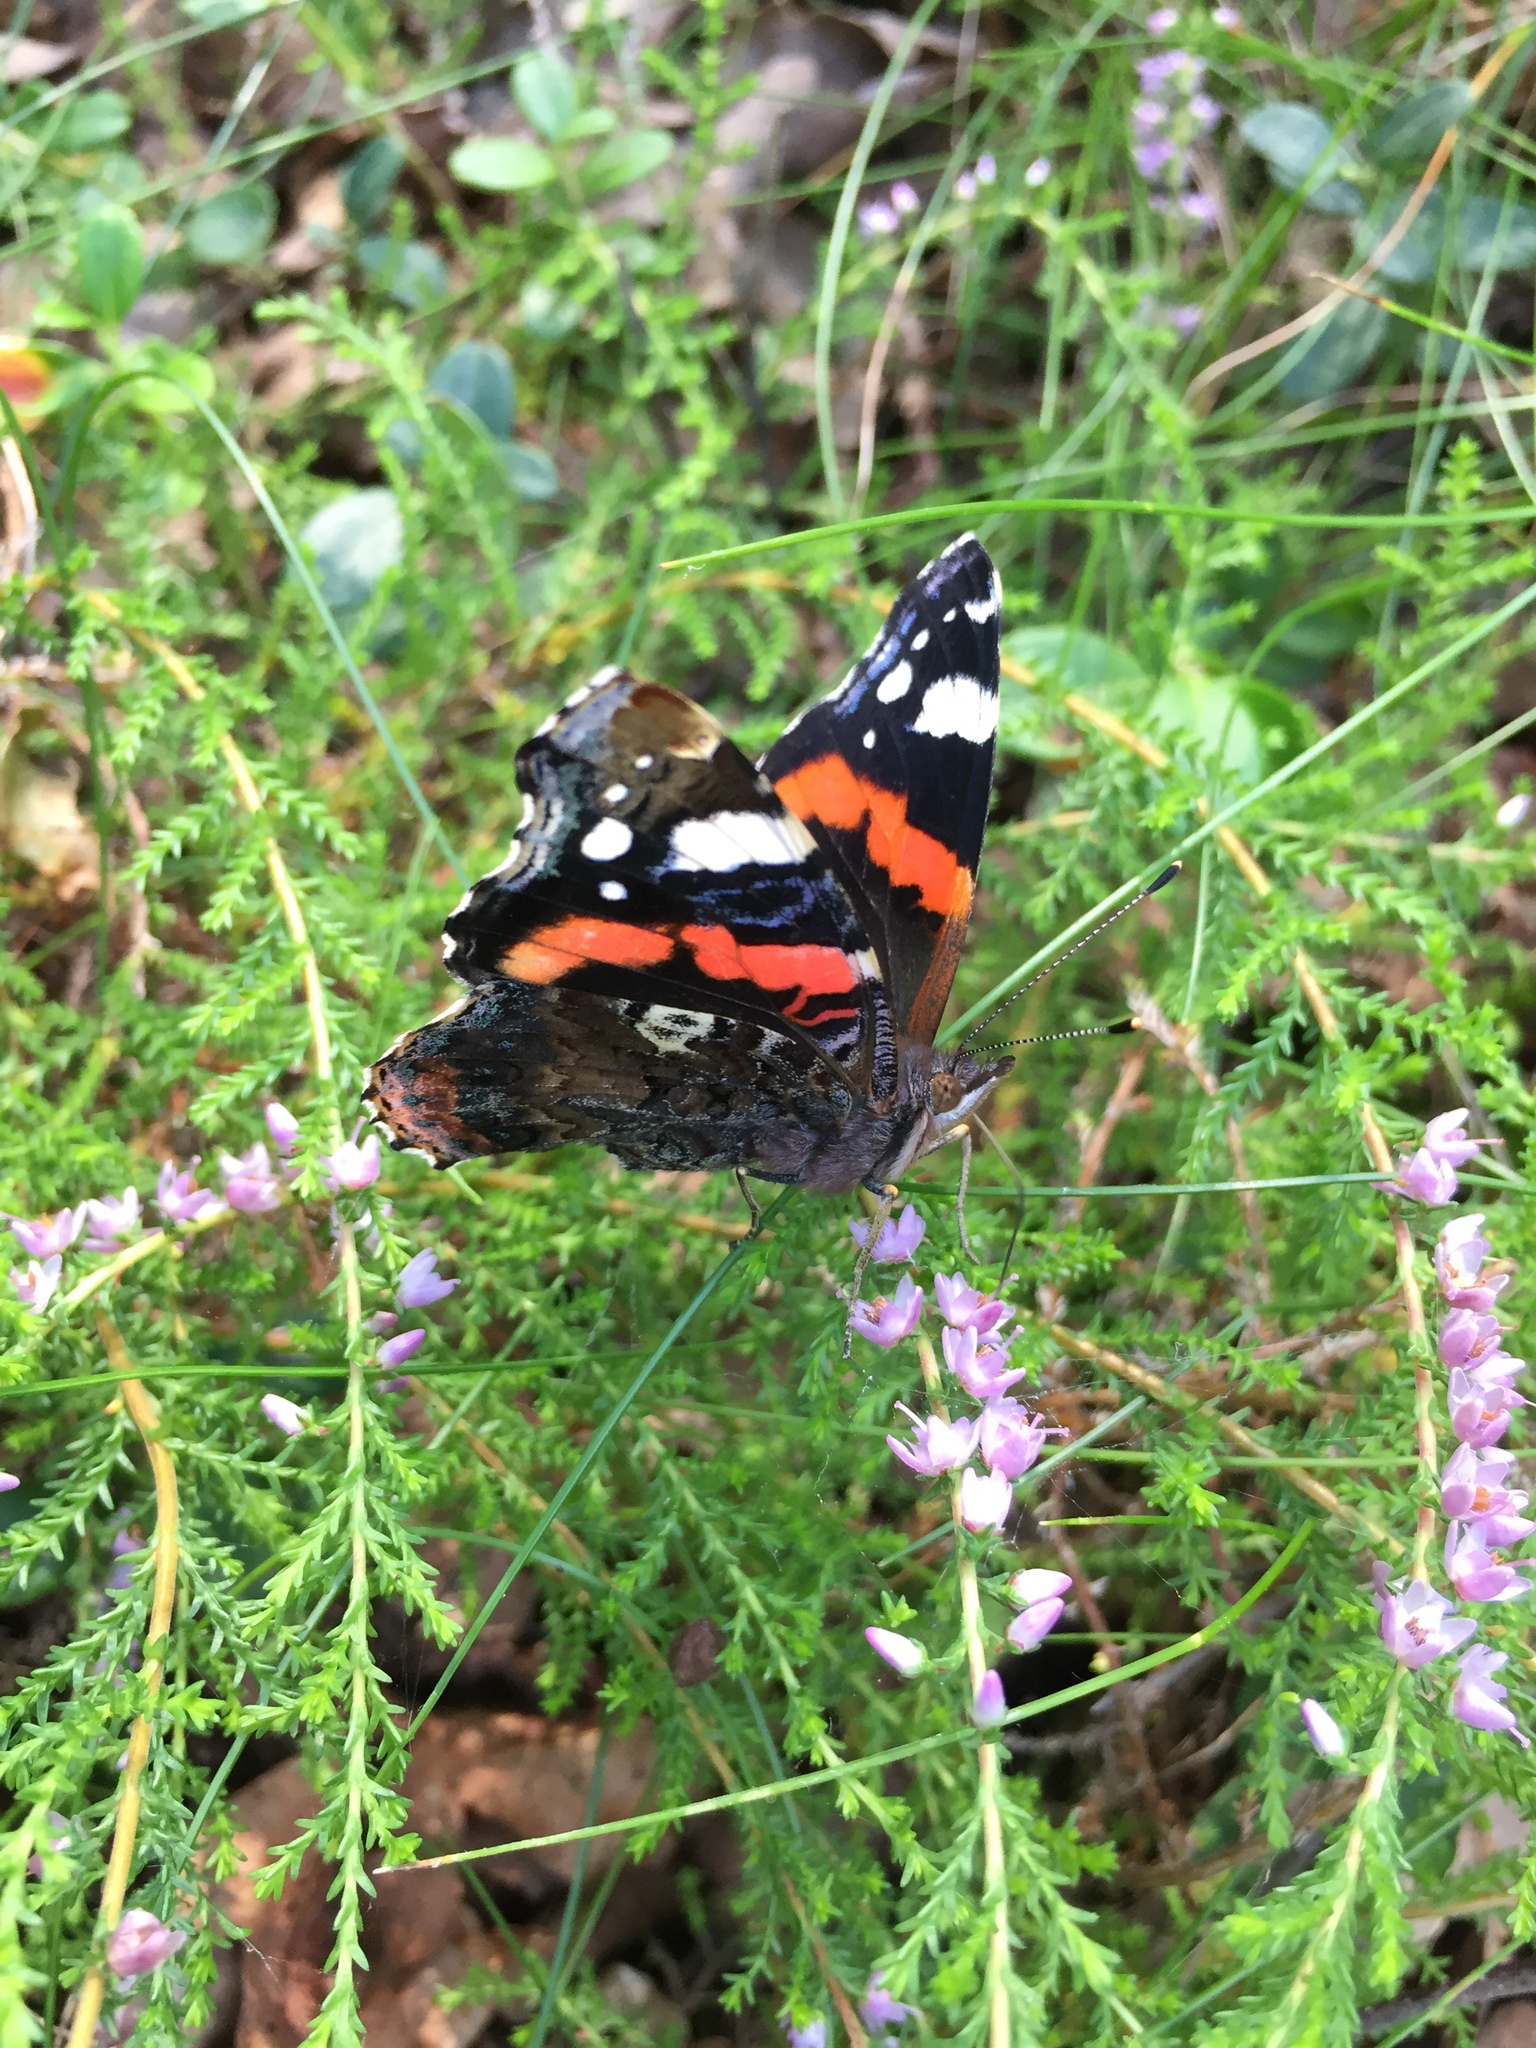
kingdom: Animalia
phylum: Arthropoda
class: Insecta
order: Lepidoptera
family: Nymphalidae
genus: Vanessa
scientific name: Vanessa atalanta
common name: Red admiral
